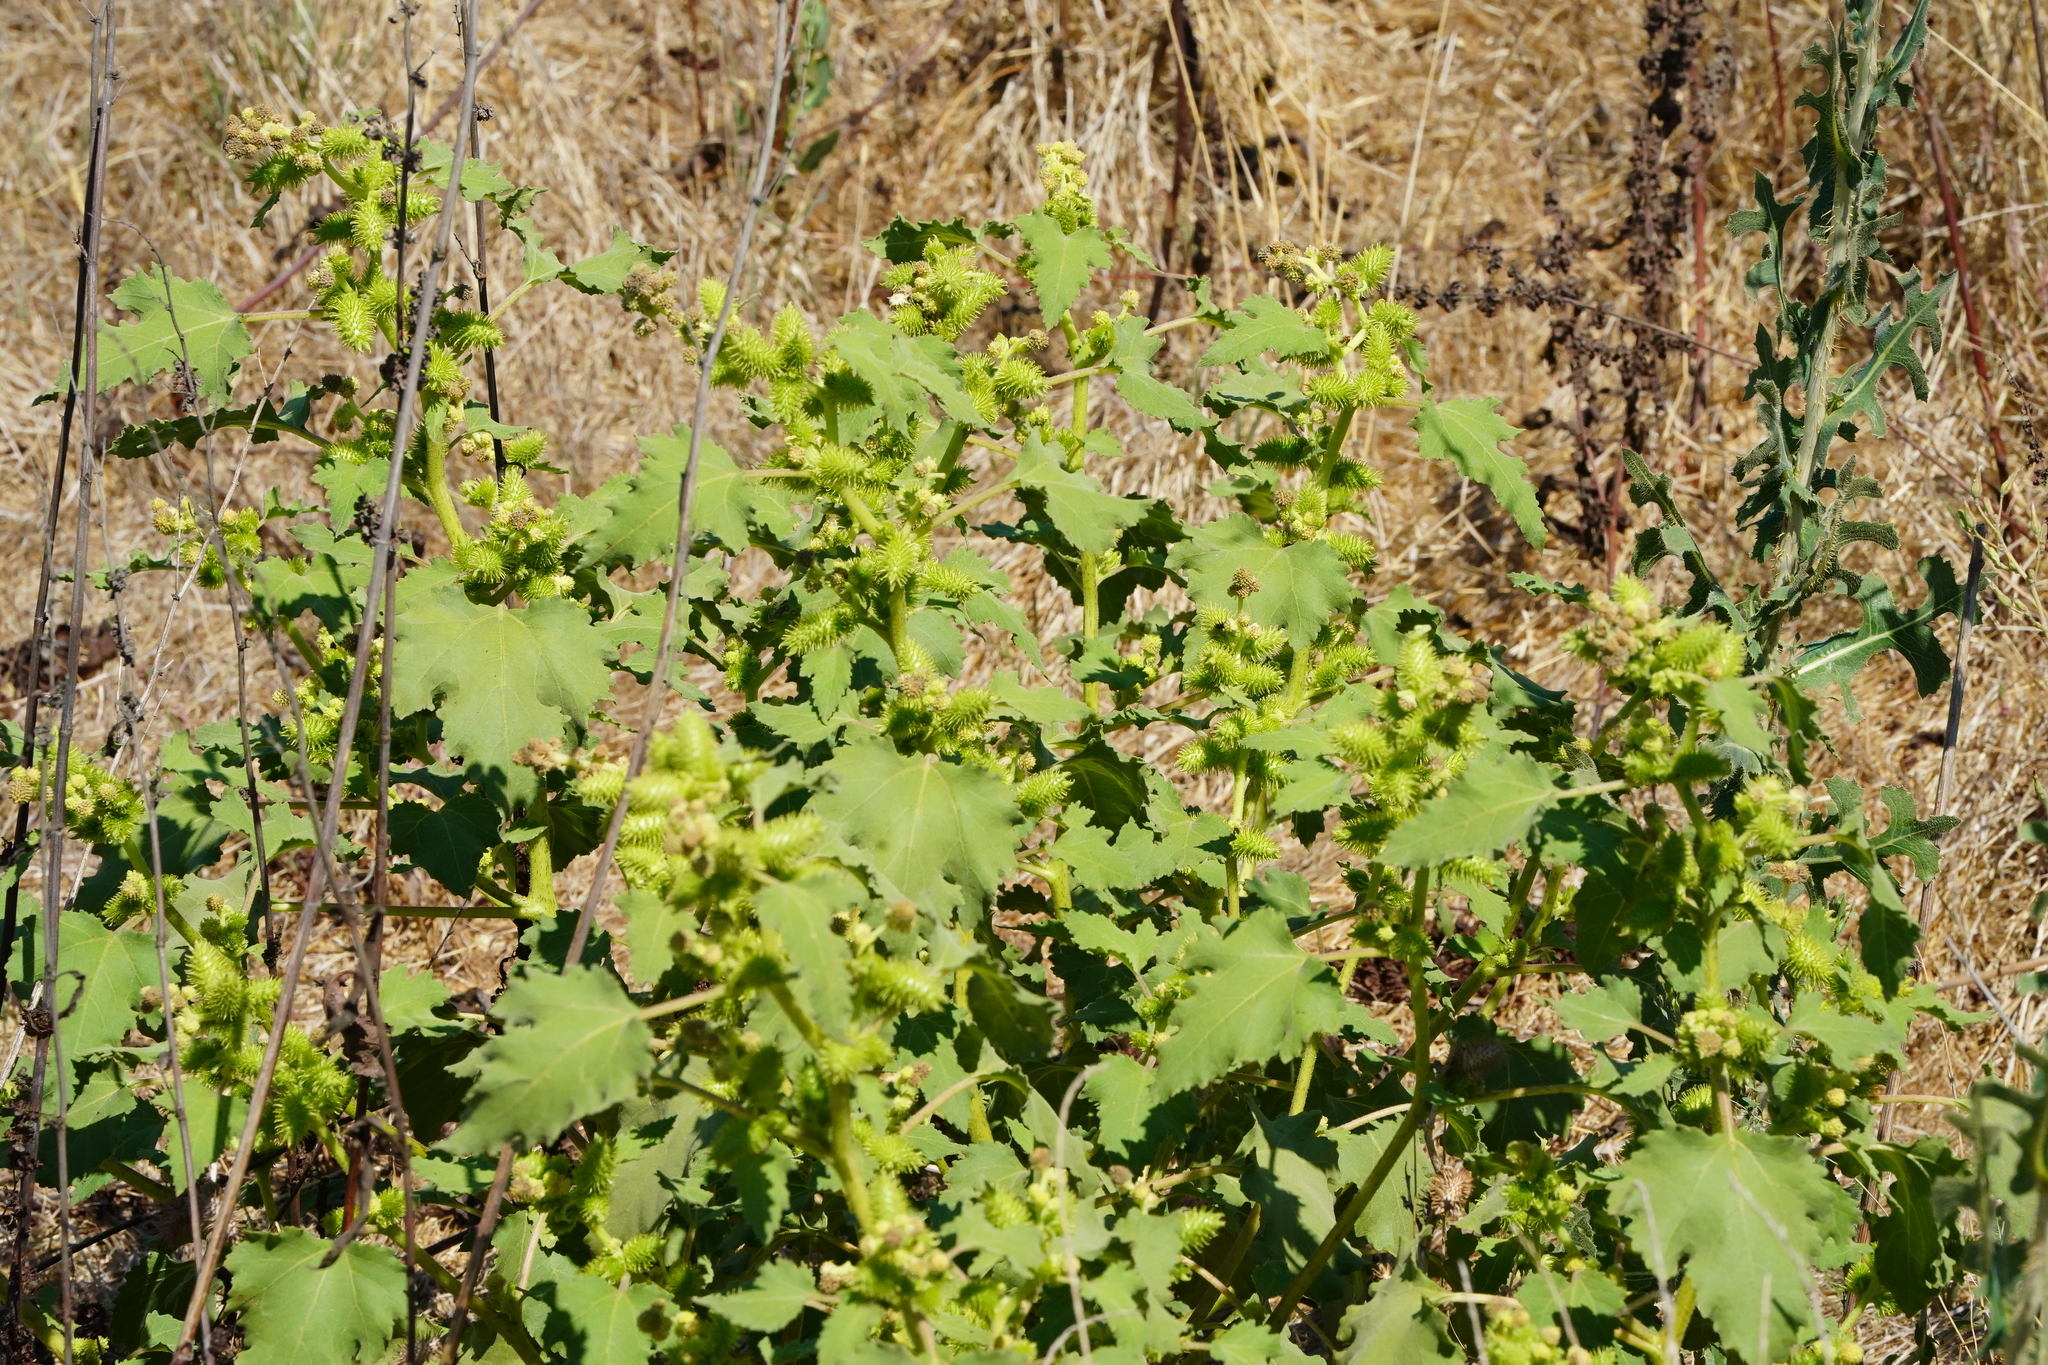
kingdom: Plantae
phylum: Tracheophyta
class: Magnoliopsida
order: Asterales
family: Asteraceae
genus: Xanthium
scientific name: Xanthium strumarium
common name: Rough cocklebur
